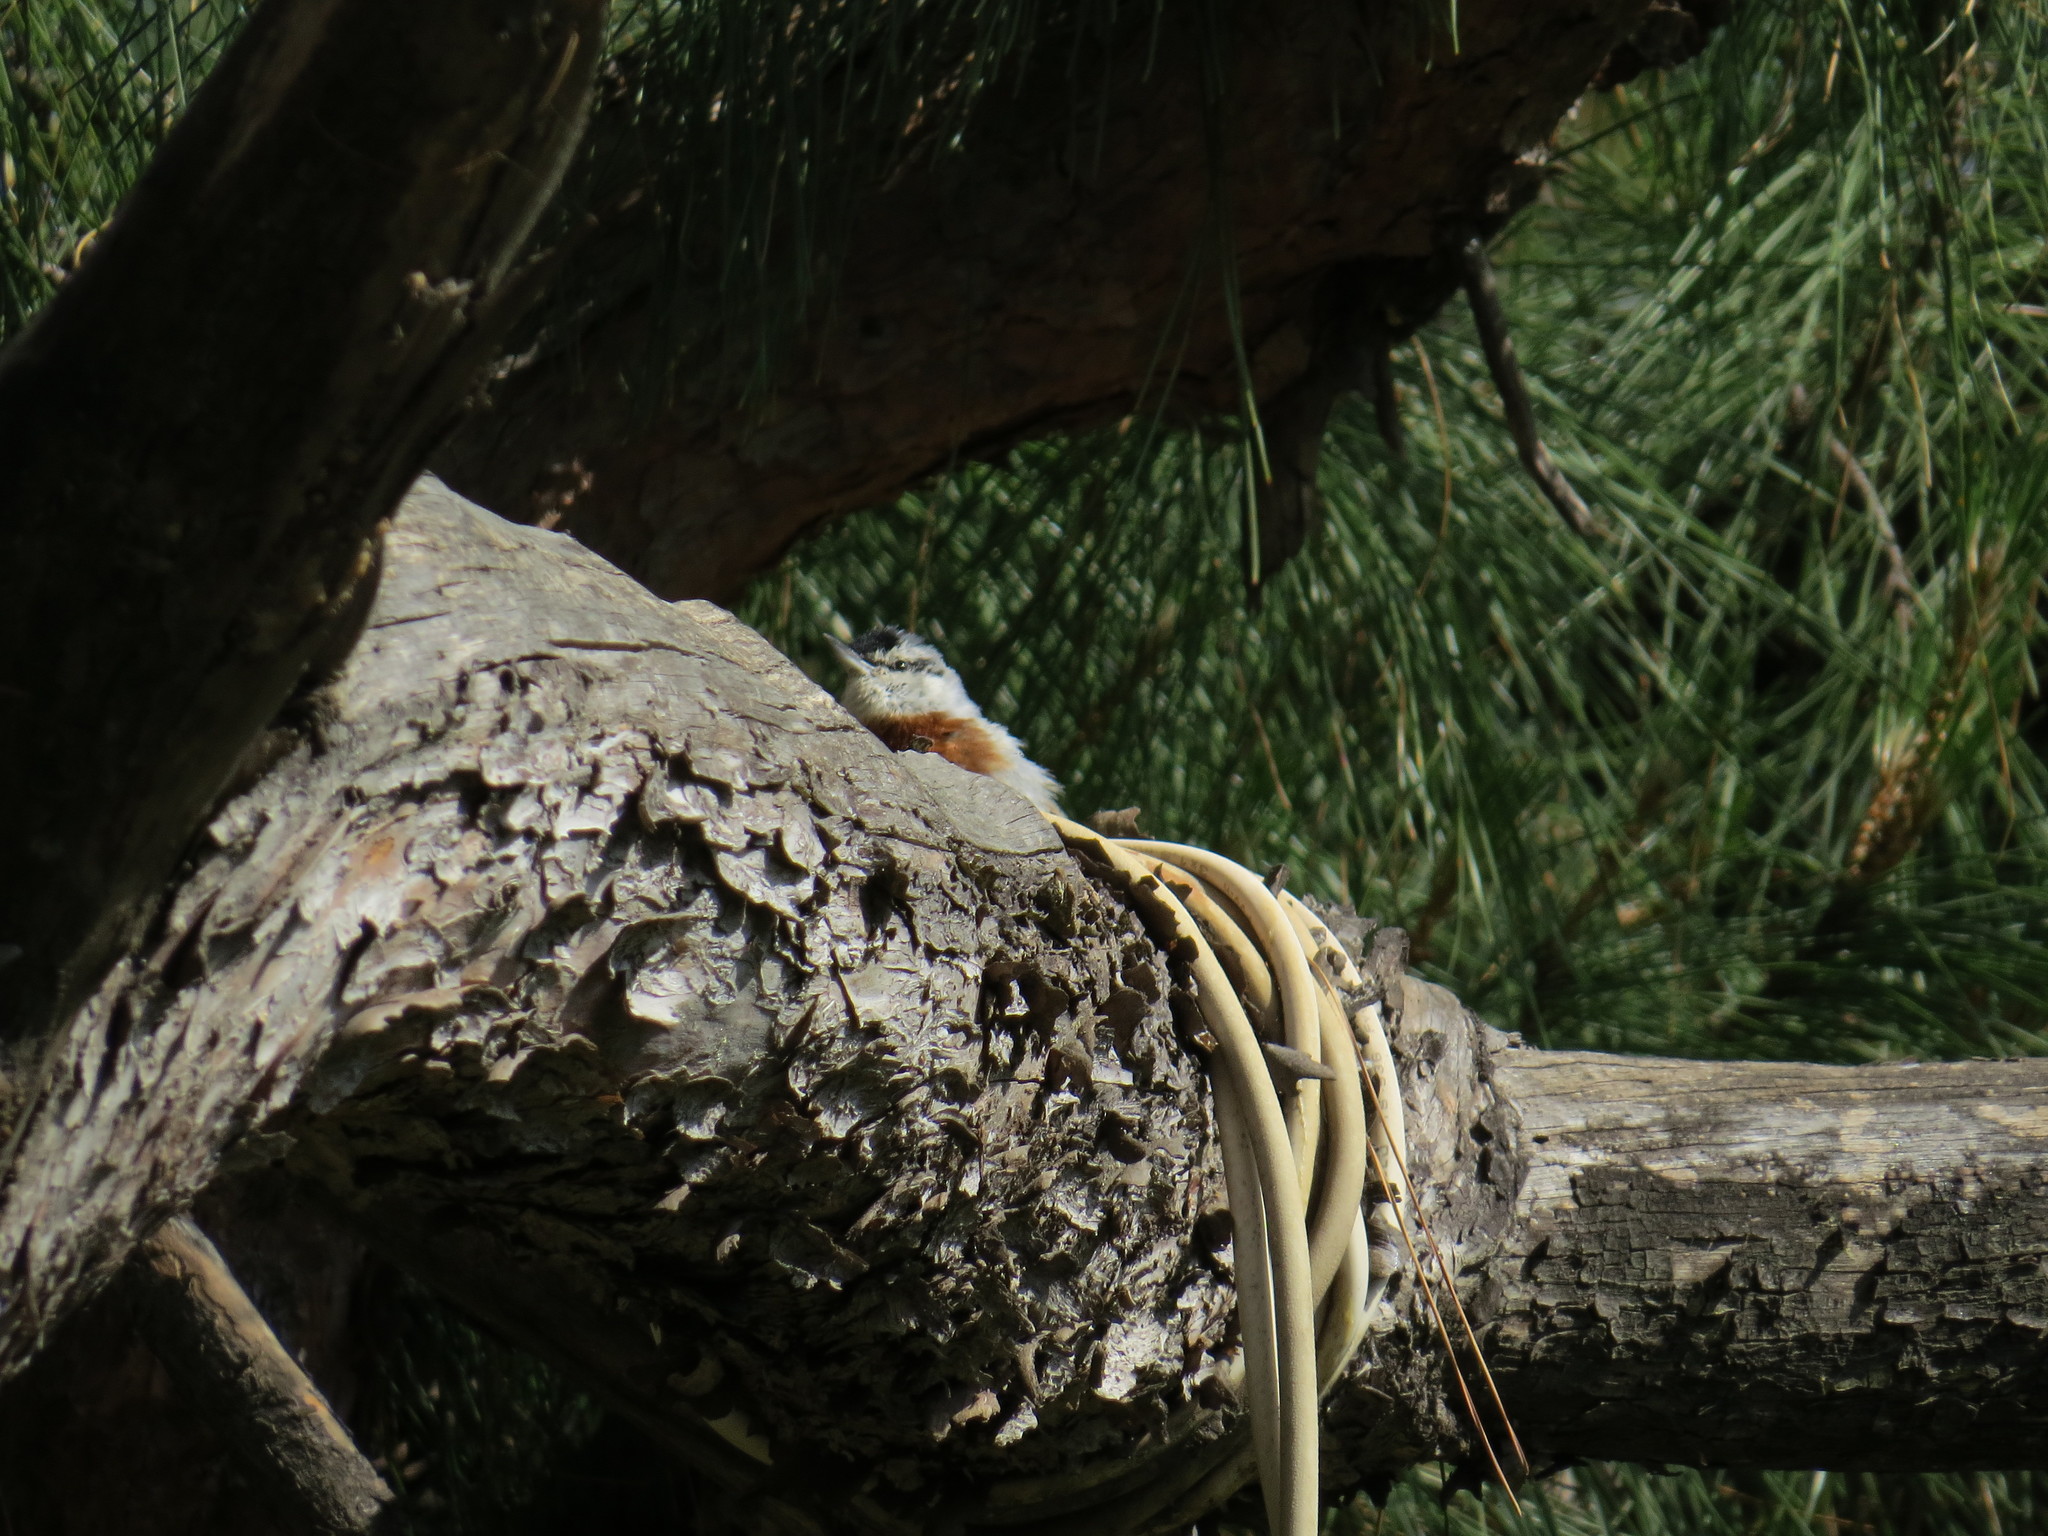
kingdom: Animalia
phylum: Chordata
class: Aves
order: Passeriformes
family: Sittidae
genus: Sitta
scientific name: Sitta krueperi
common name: Krüper's nuthatch
